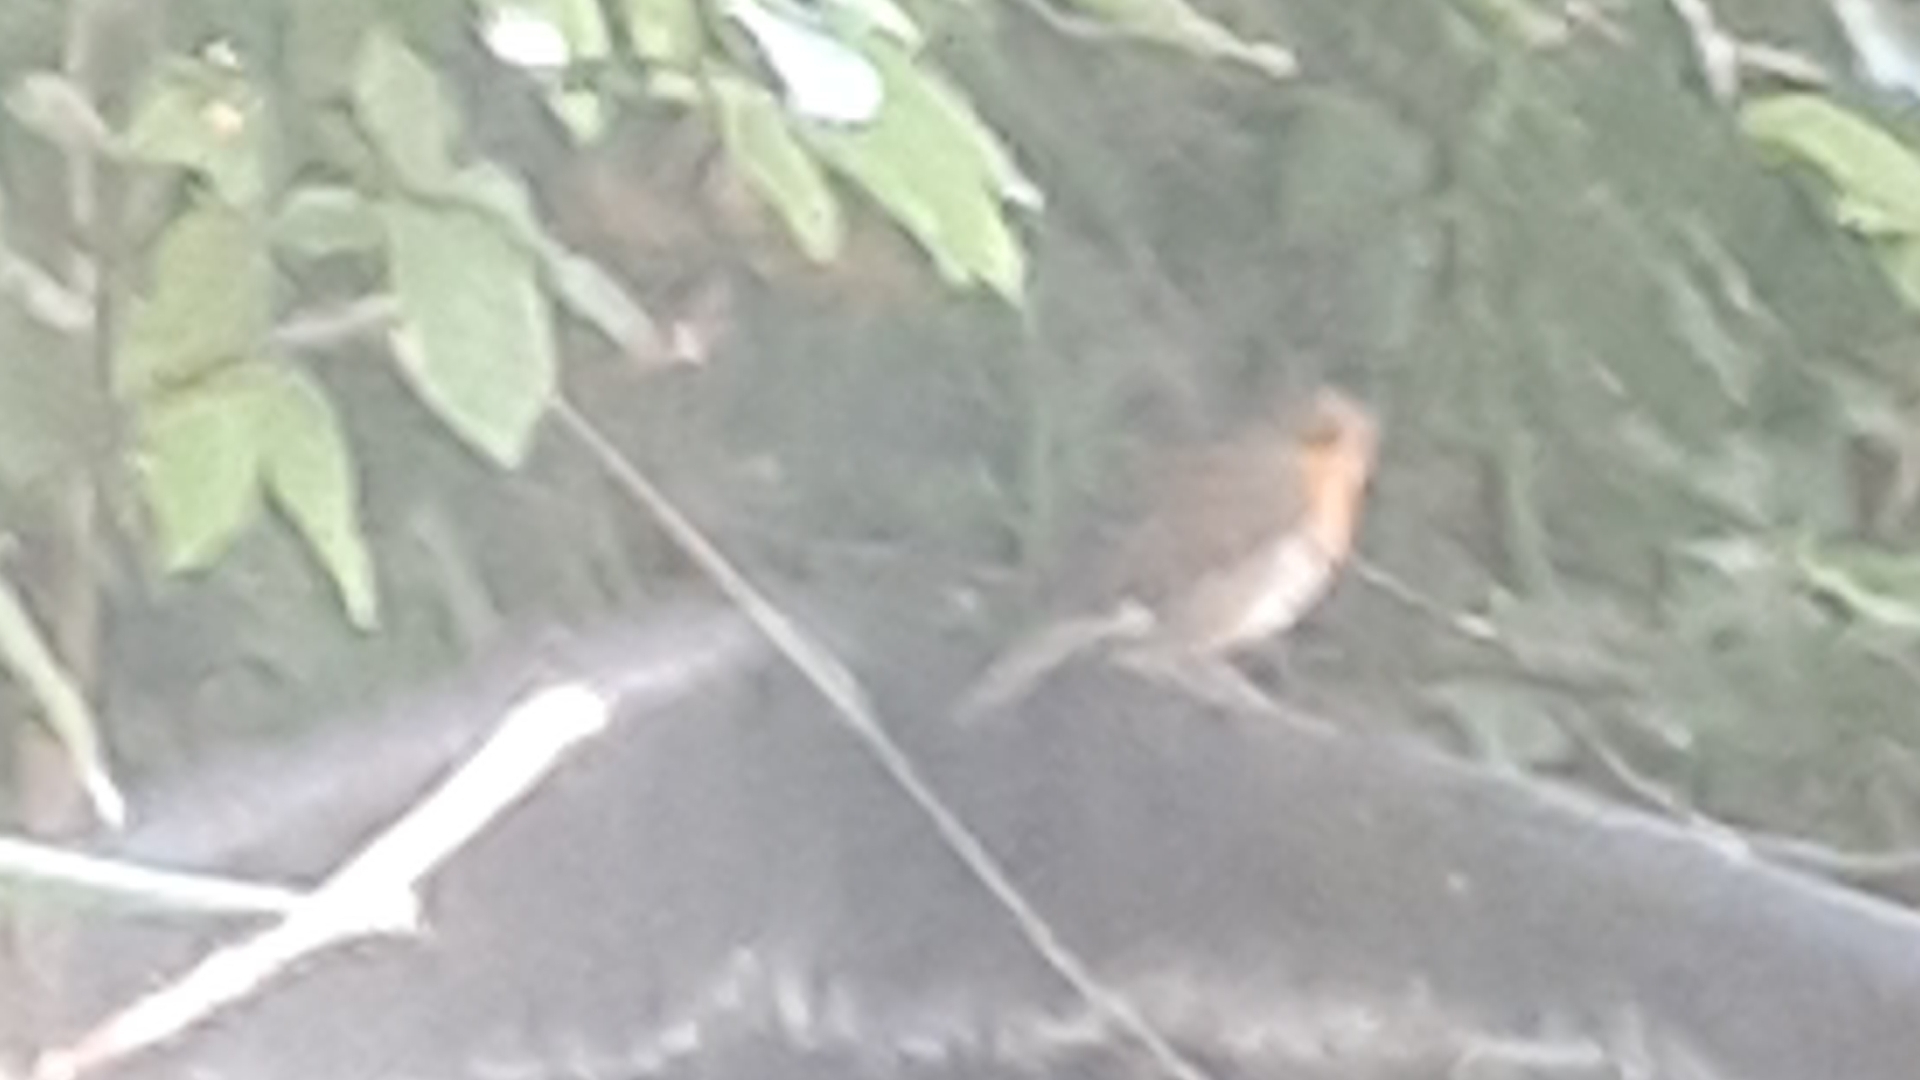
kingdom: Animalia
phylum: Chordata
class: Aves
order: Passeriformes
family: Muscicapidae
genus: Erithacus
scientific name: Erithacus rubecula
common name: European robin
